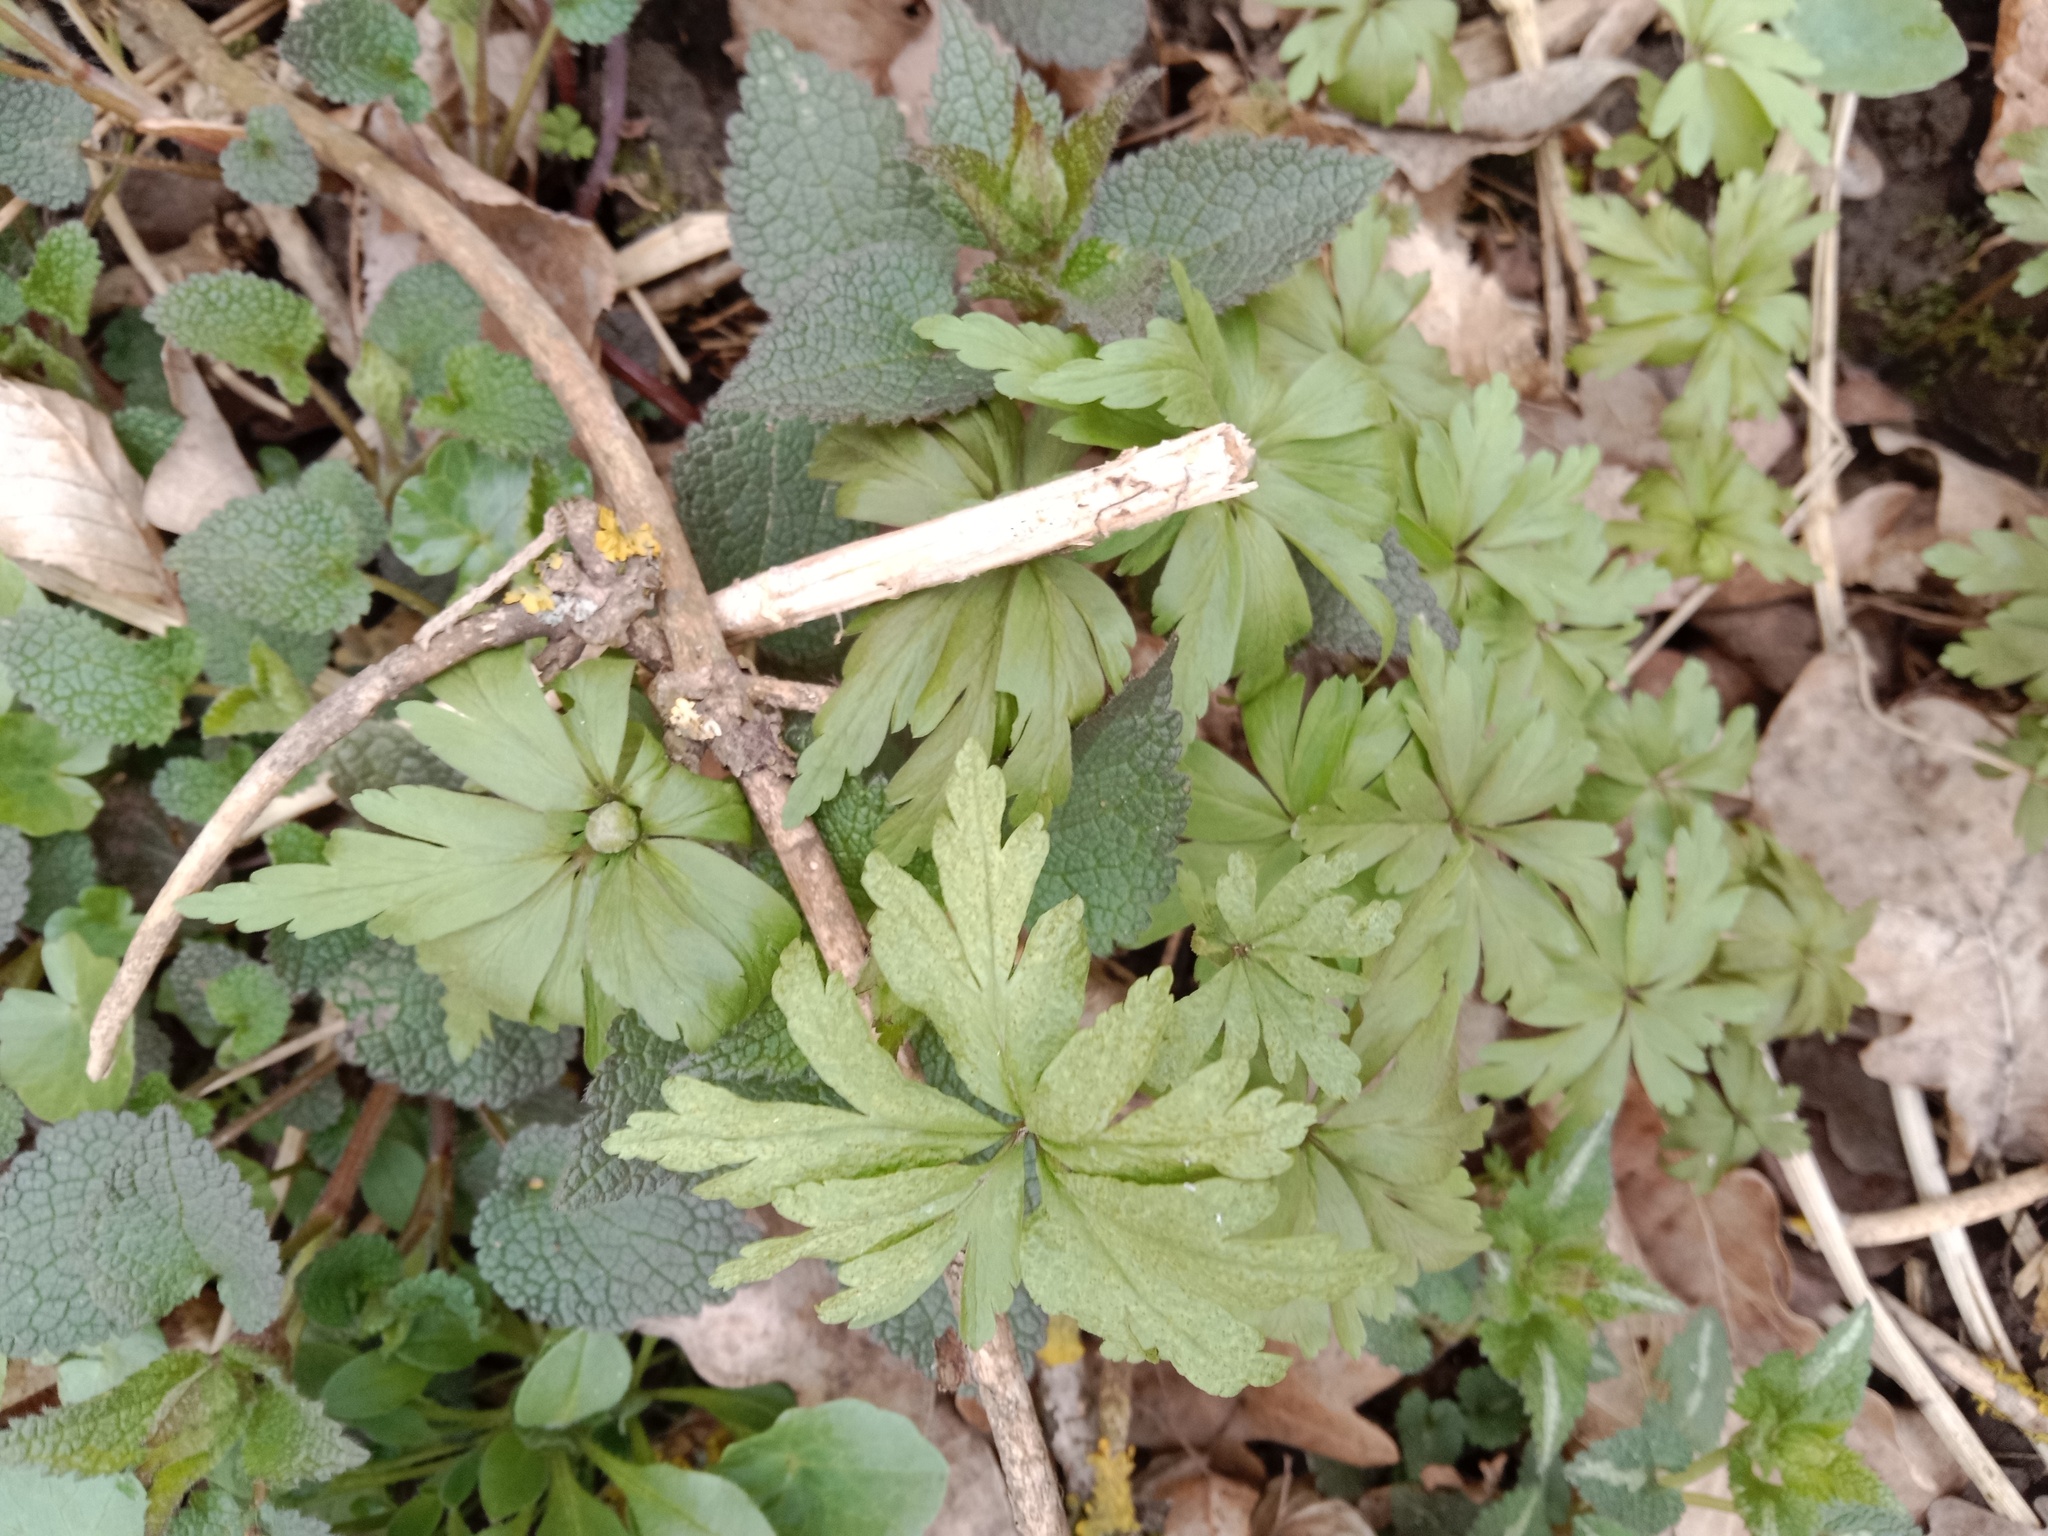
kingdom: Plantae
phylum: Tracheophyta
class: Magnoliopsida
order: Ranunculales
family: Ranunculaceae
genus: Anemone
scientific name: Anemone ranunculoides
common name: Yellow anemone
